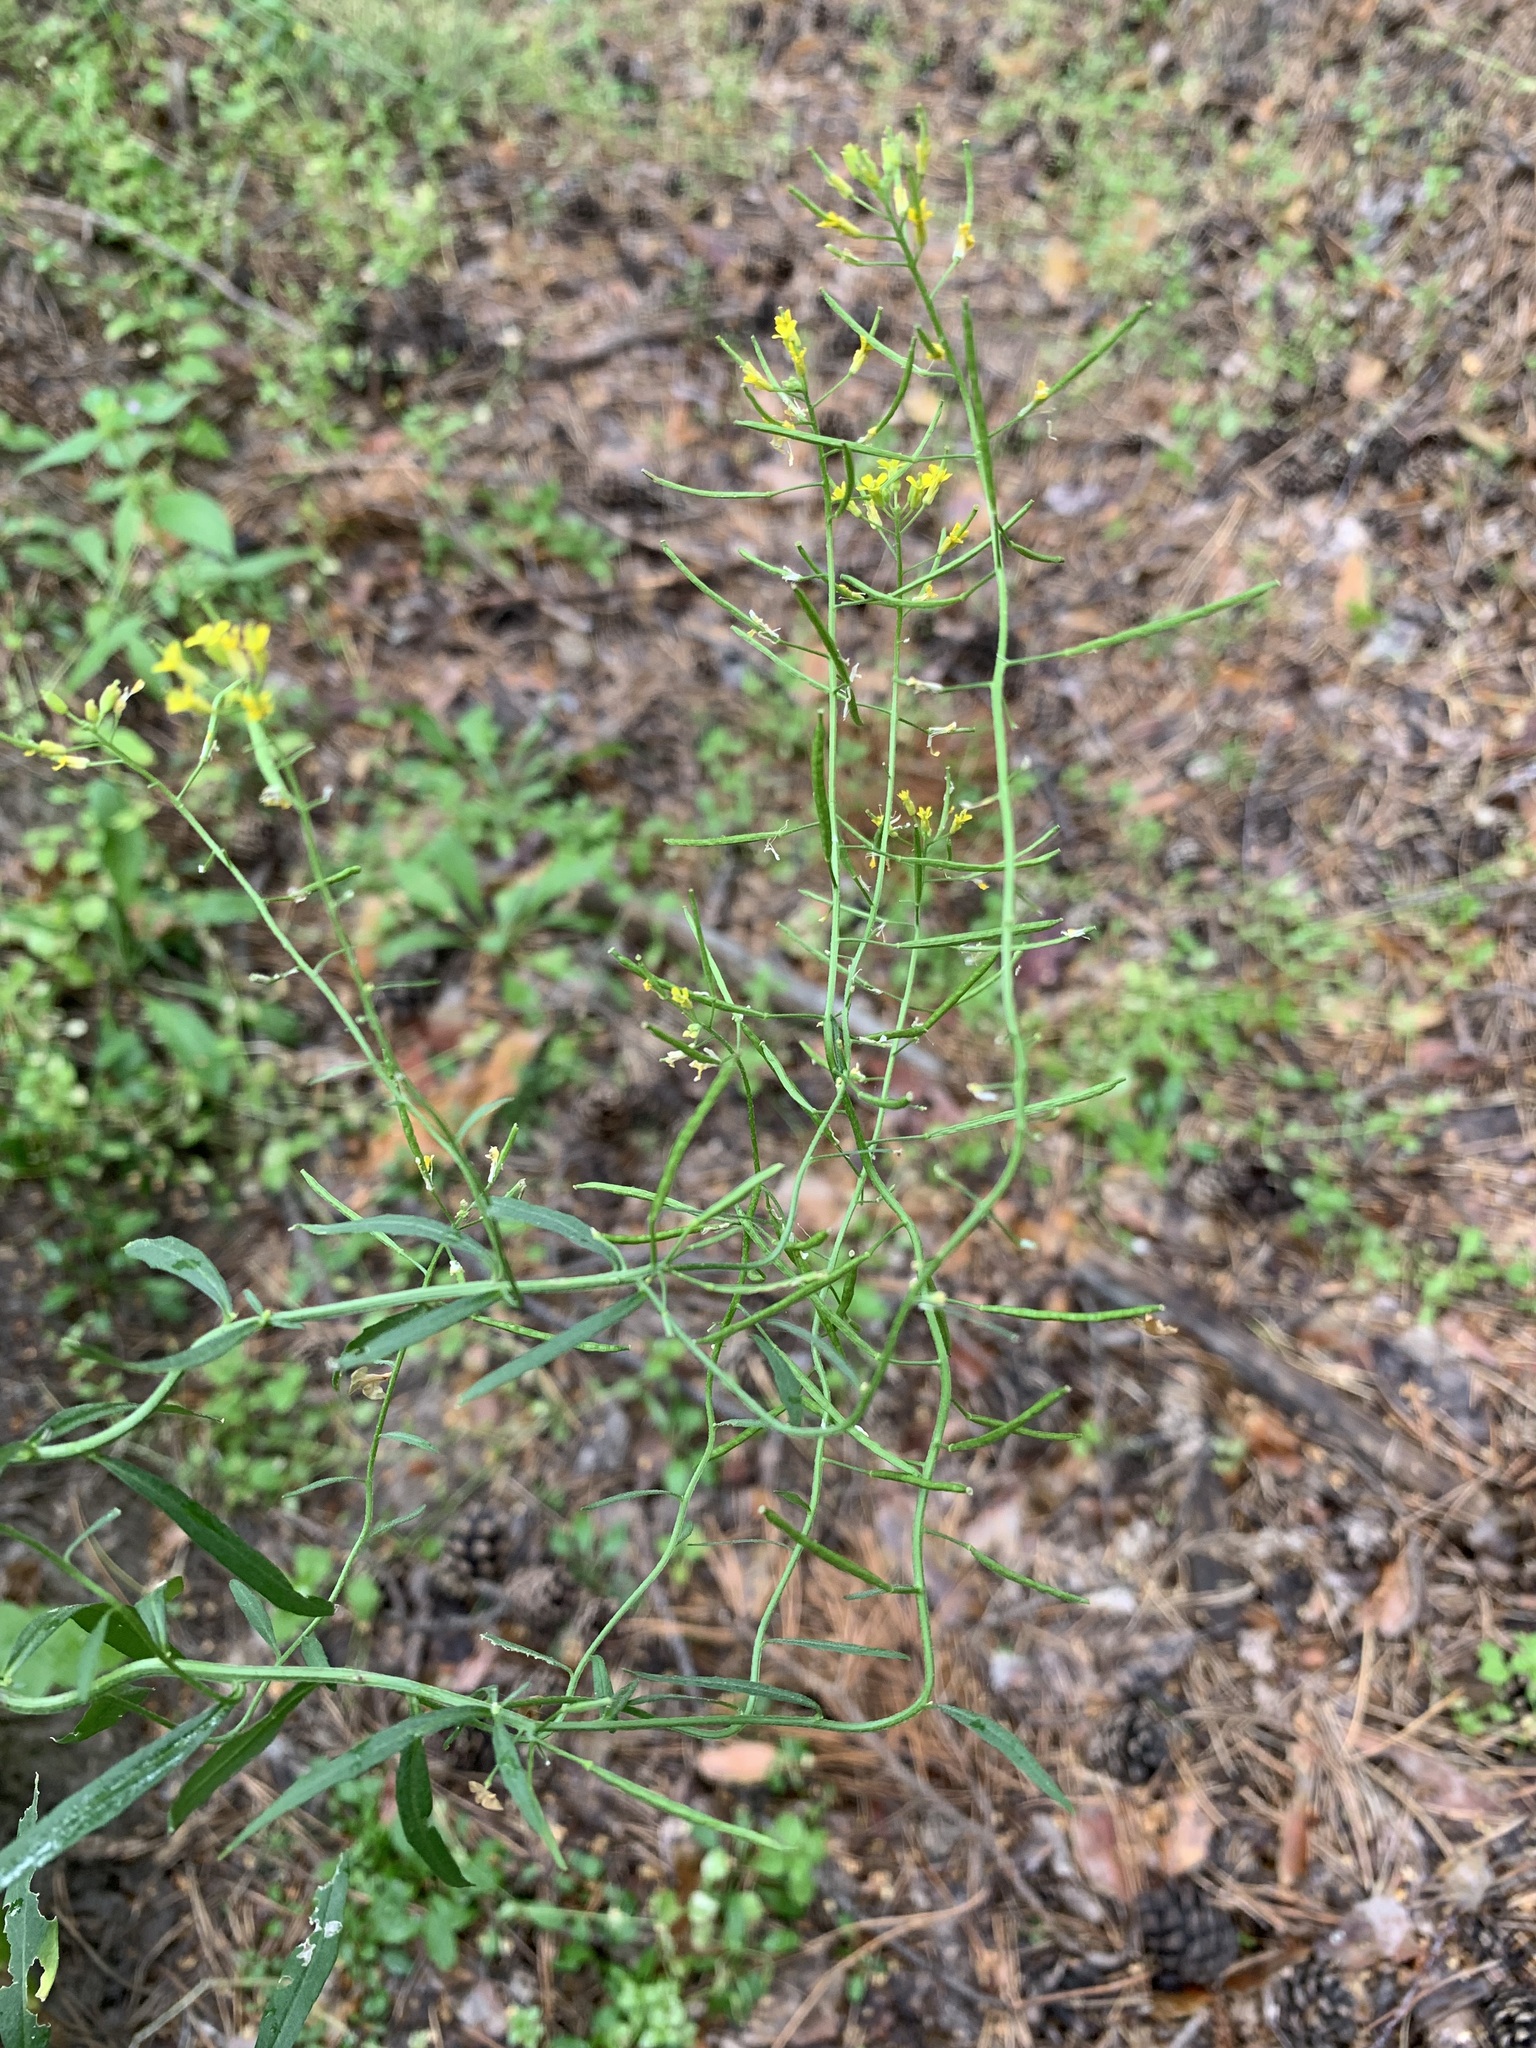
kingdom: Plantae
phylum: Tracheophyta
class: Magnoliopsida
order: Brassicales
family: Brassicaceae
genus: Erysimum
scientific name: Erysimum cheiranthoides
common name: Treacle mustard
